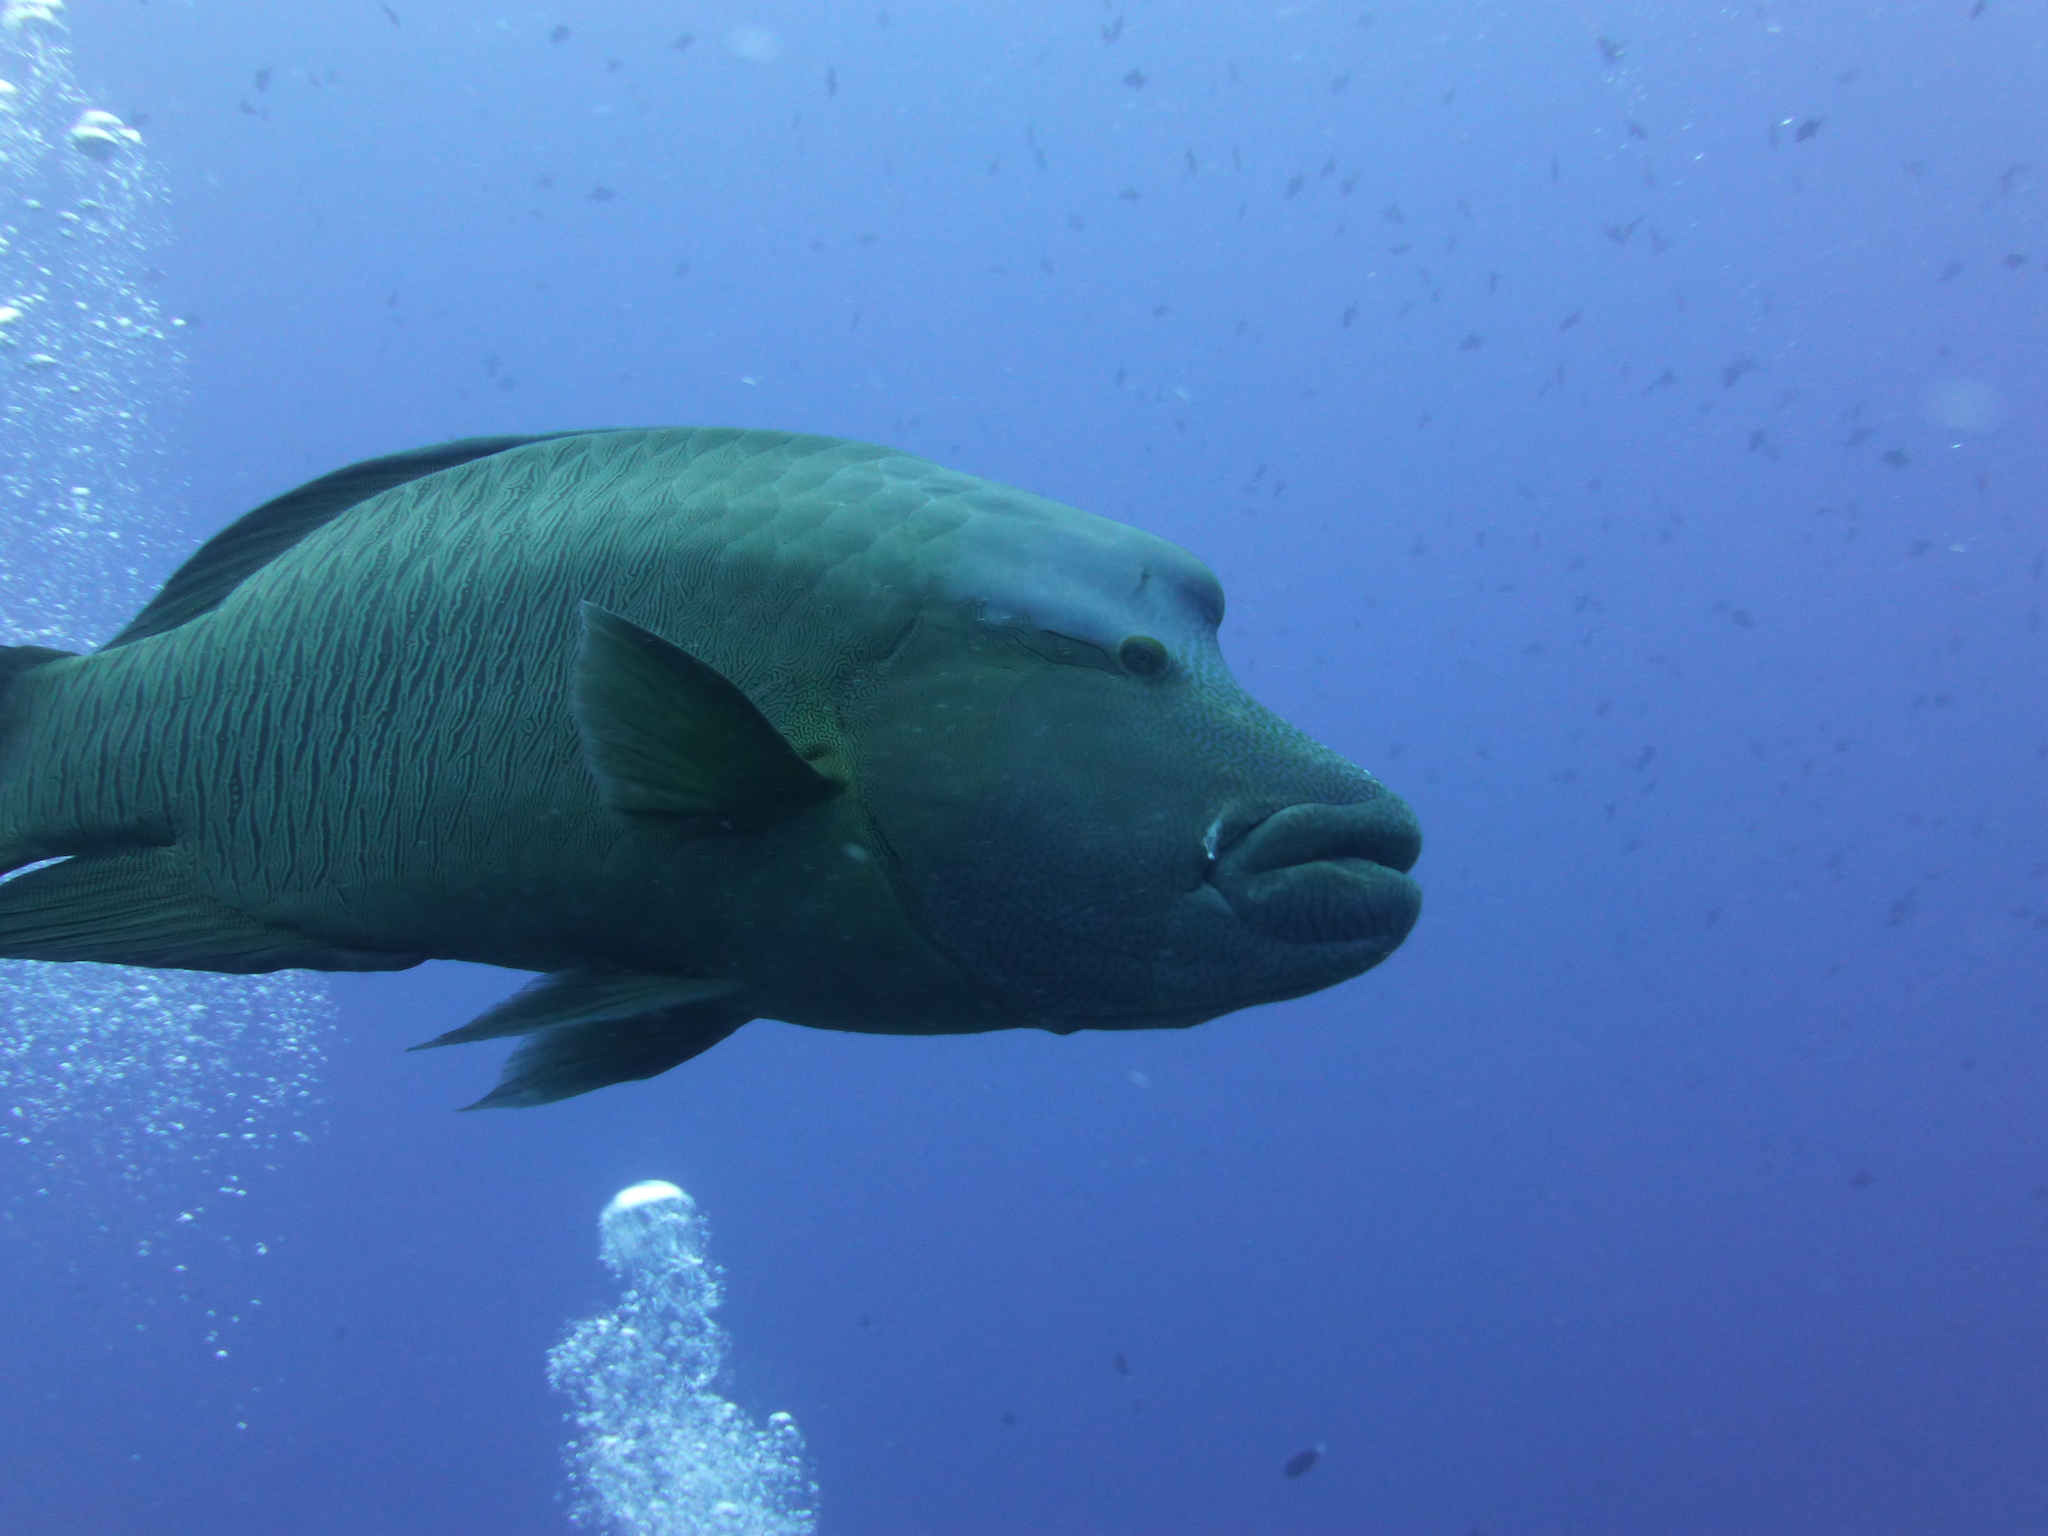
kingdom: Animalia
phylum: Chordata
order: Perciformes
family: Labridae
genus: Cheilinus
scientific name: Cheilinus undulatus
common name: Humphead wrasse
